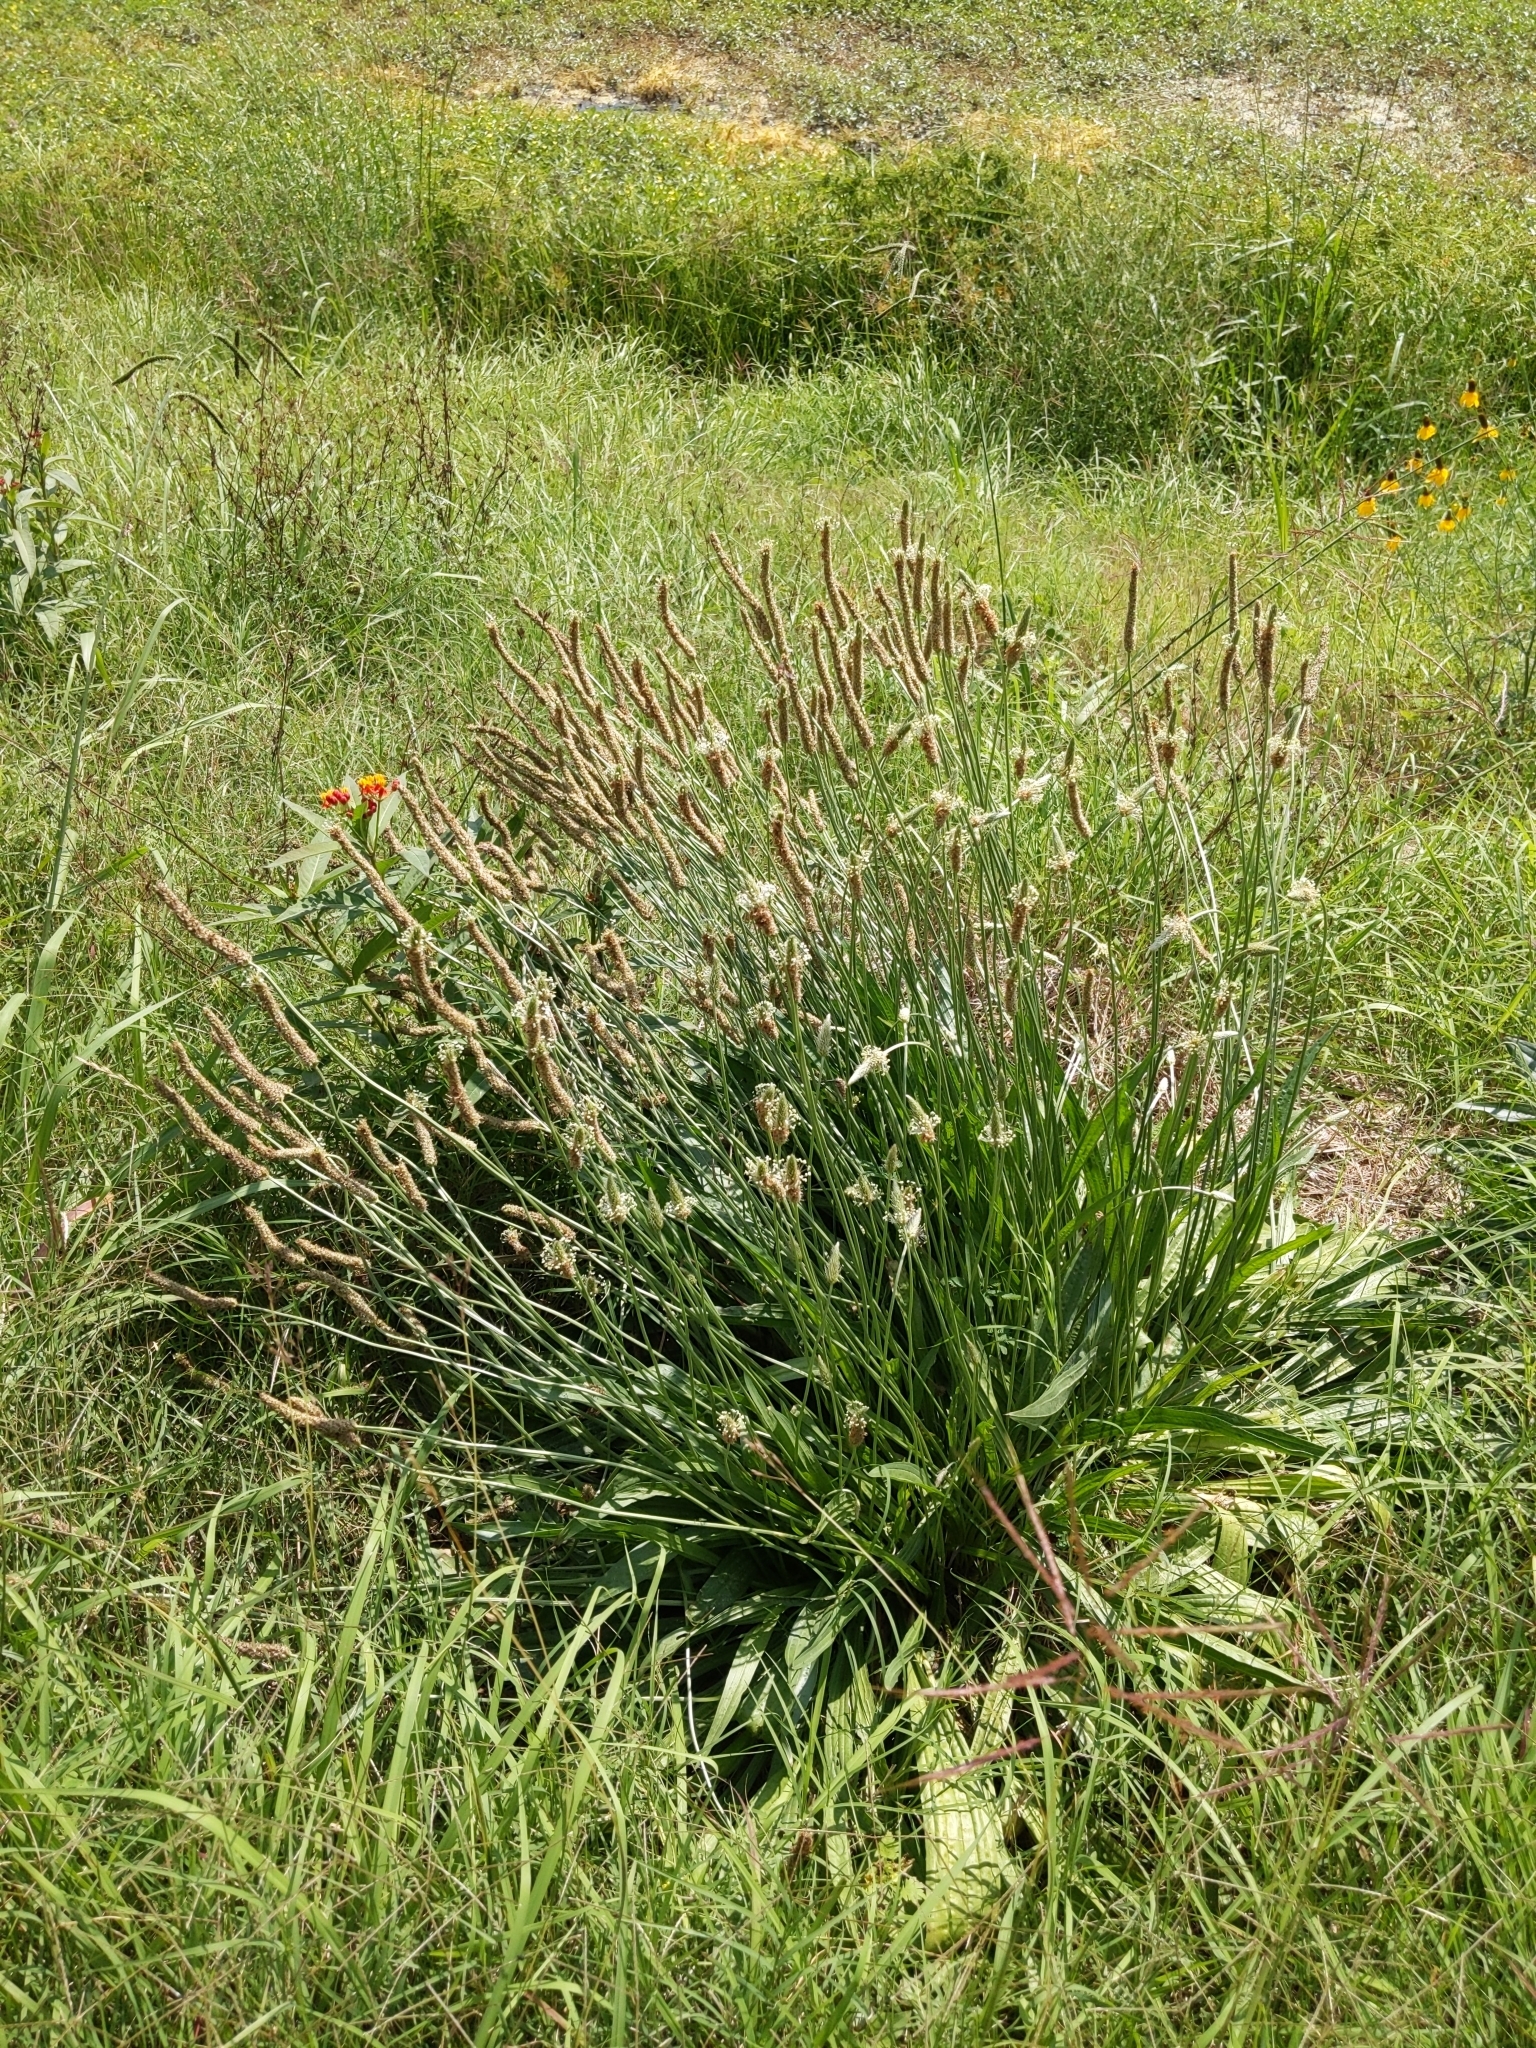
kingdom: Plantae
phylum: Tracheophyta
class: Magnoliopsida
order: Lamiales
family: Plantaginaceae
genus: Plantago
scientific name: Plantago lanceolata
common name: Ribwort plantain
